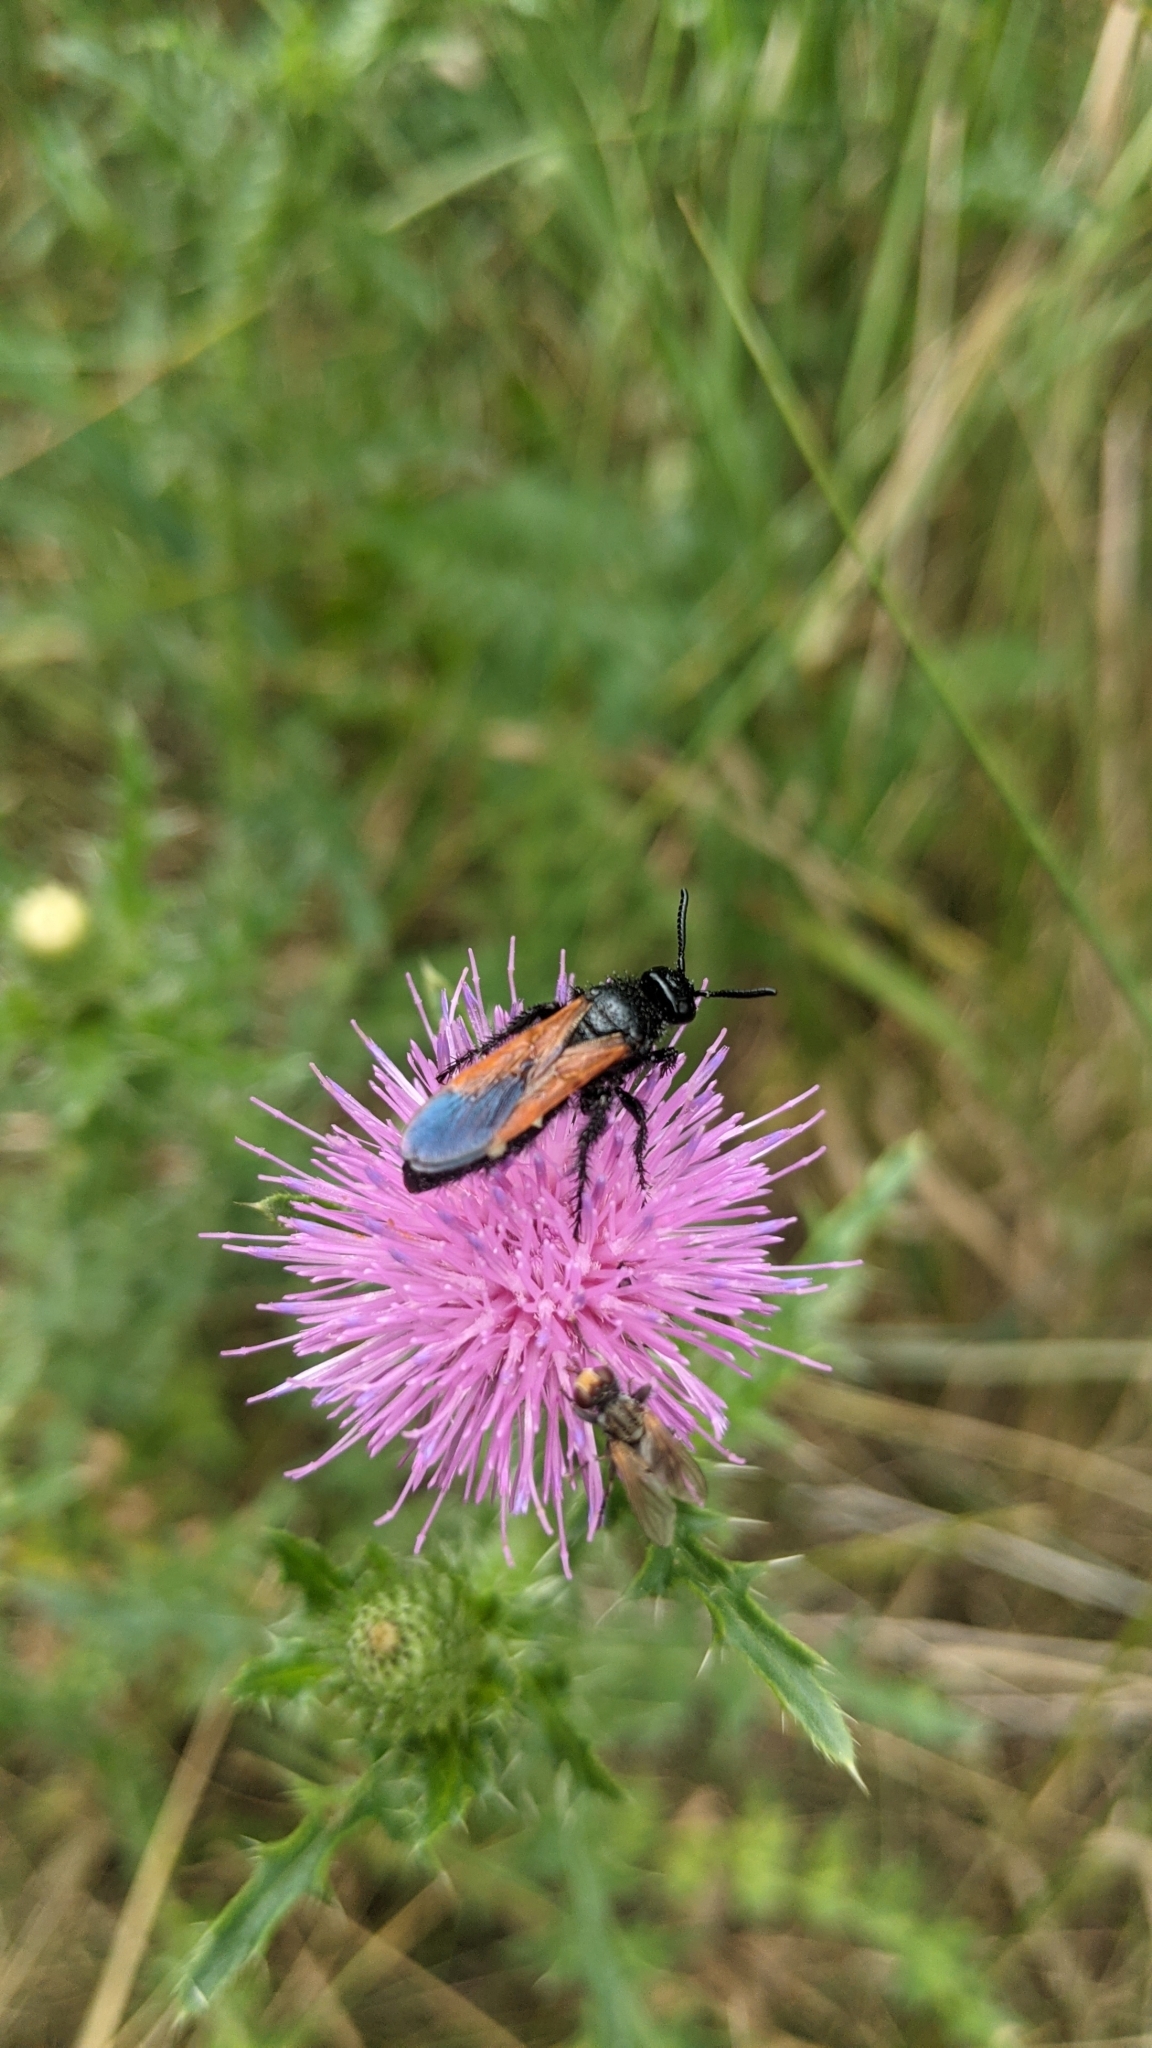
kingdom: Animalia
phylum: Arthropoda
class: Insecta
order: Hymenoptera
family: Vespidae
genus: Vespa
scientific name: Vespa sexmaculata
